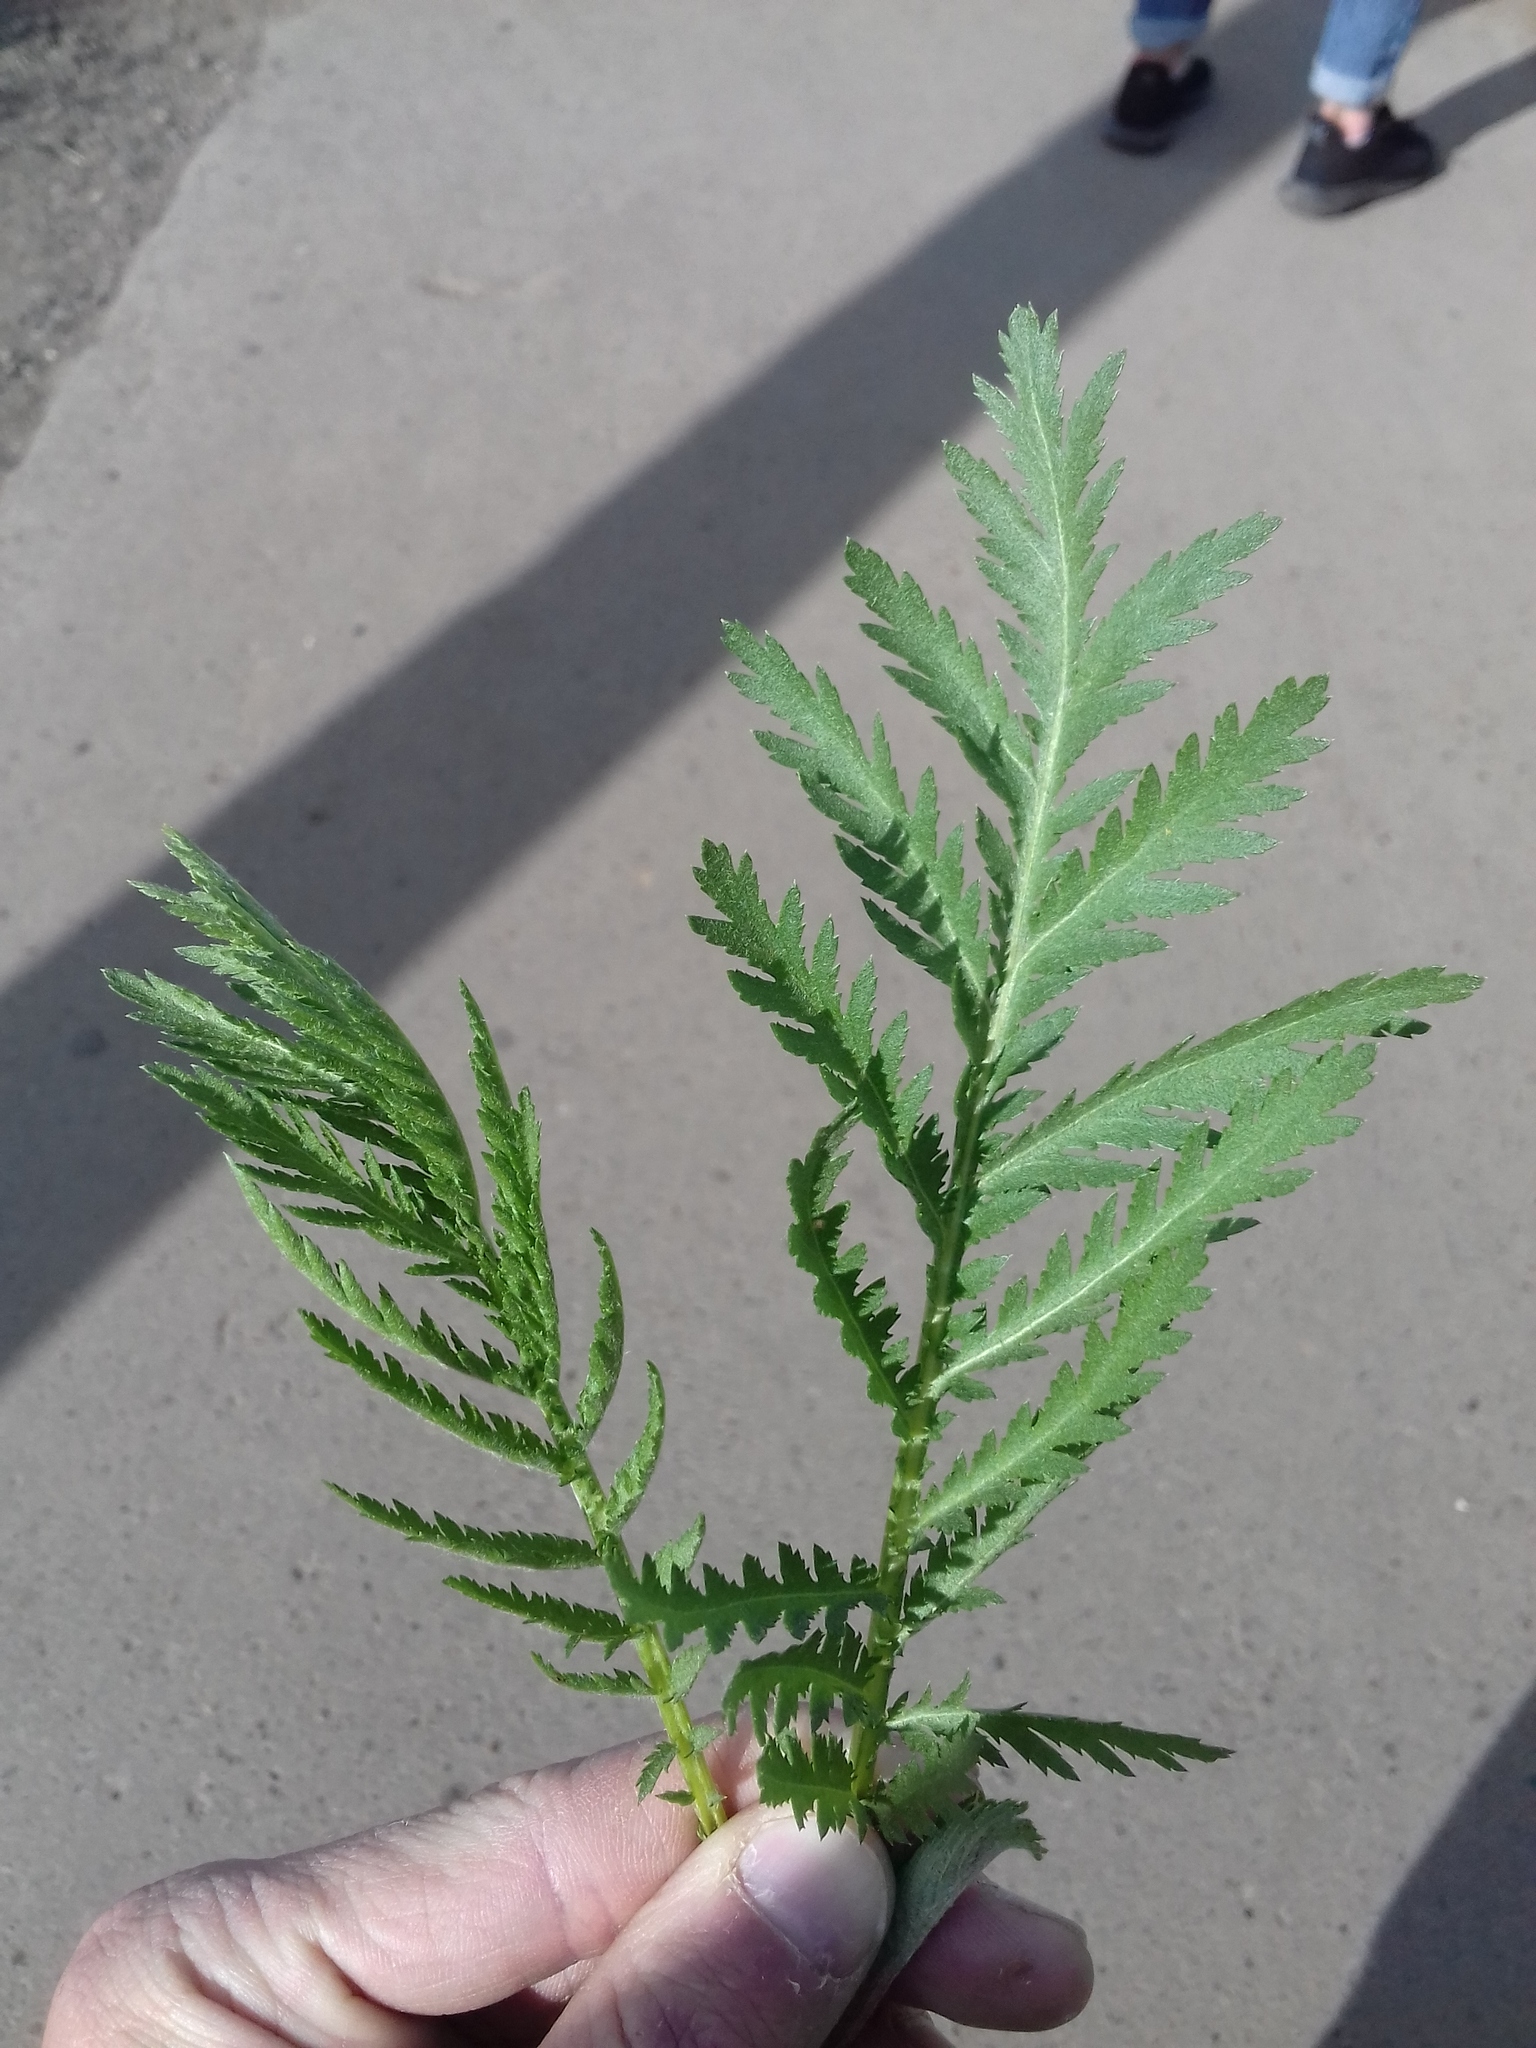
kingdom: Plantae
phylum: Tracheophyta
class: Magnoliopsida
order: Asterales
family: Asteraceae
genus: Tanacetum
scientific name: Tanacetum vulgare
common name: Common tansy
